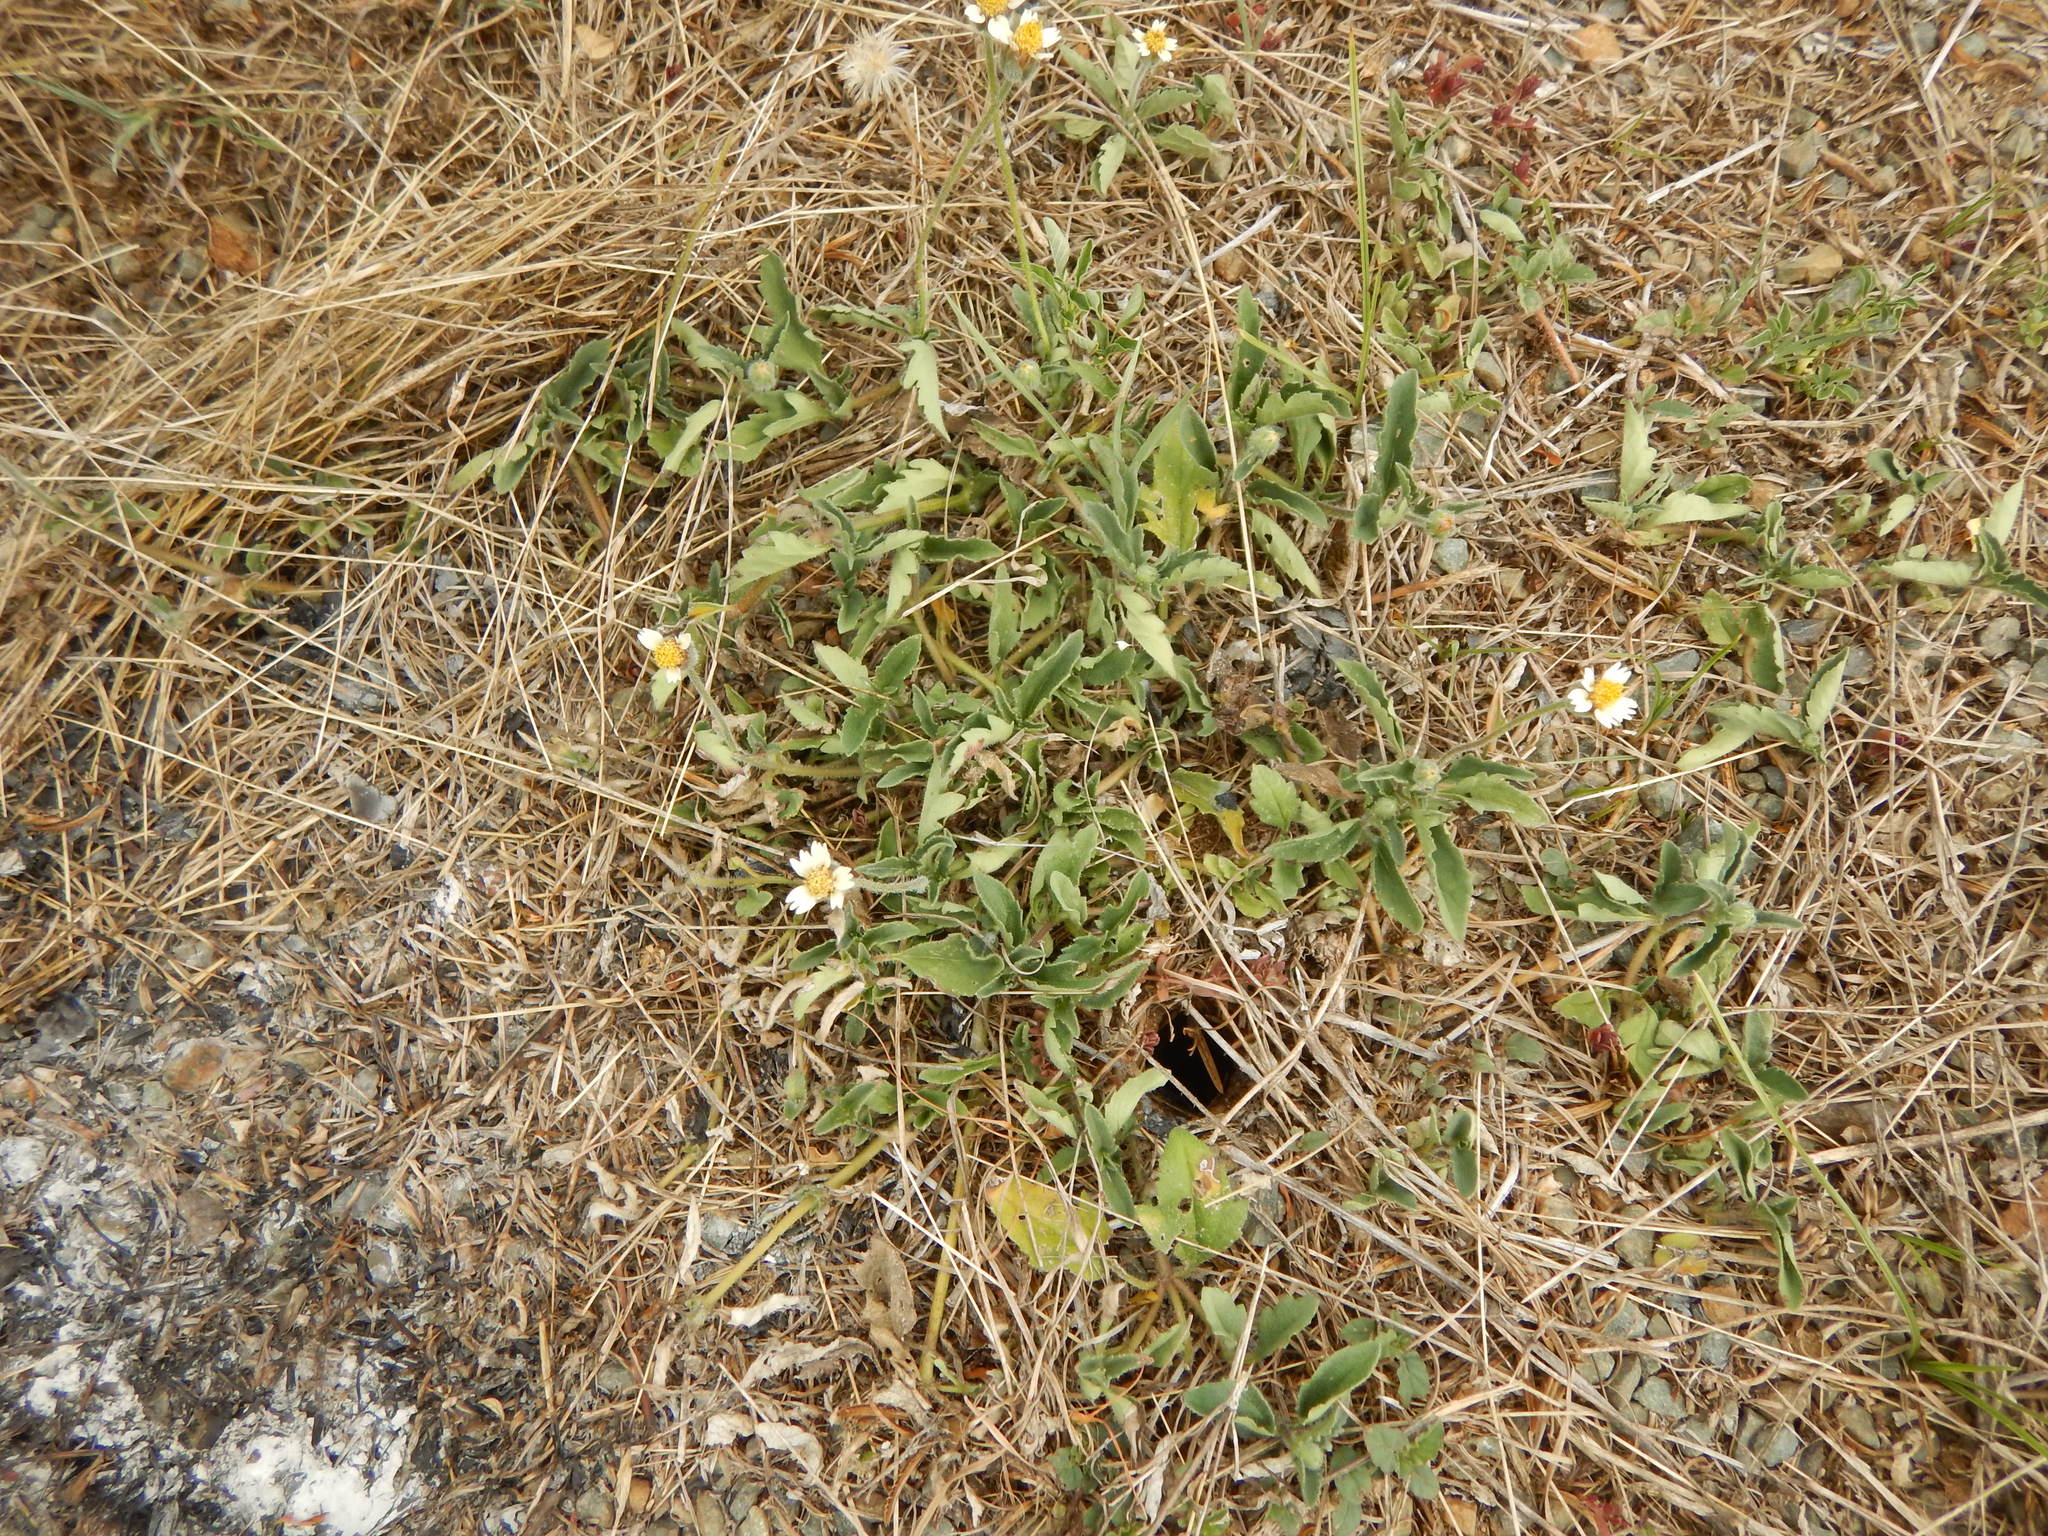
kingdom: Plantae
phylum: Tracheophyta
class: Magnoliopsida
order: Asterales
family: Asteraceae
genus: Tridax
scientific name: Tridax procumbens
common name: Coatbuttons
